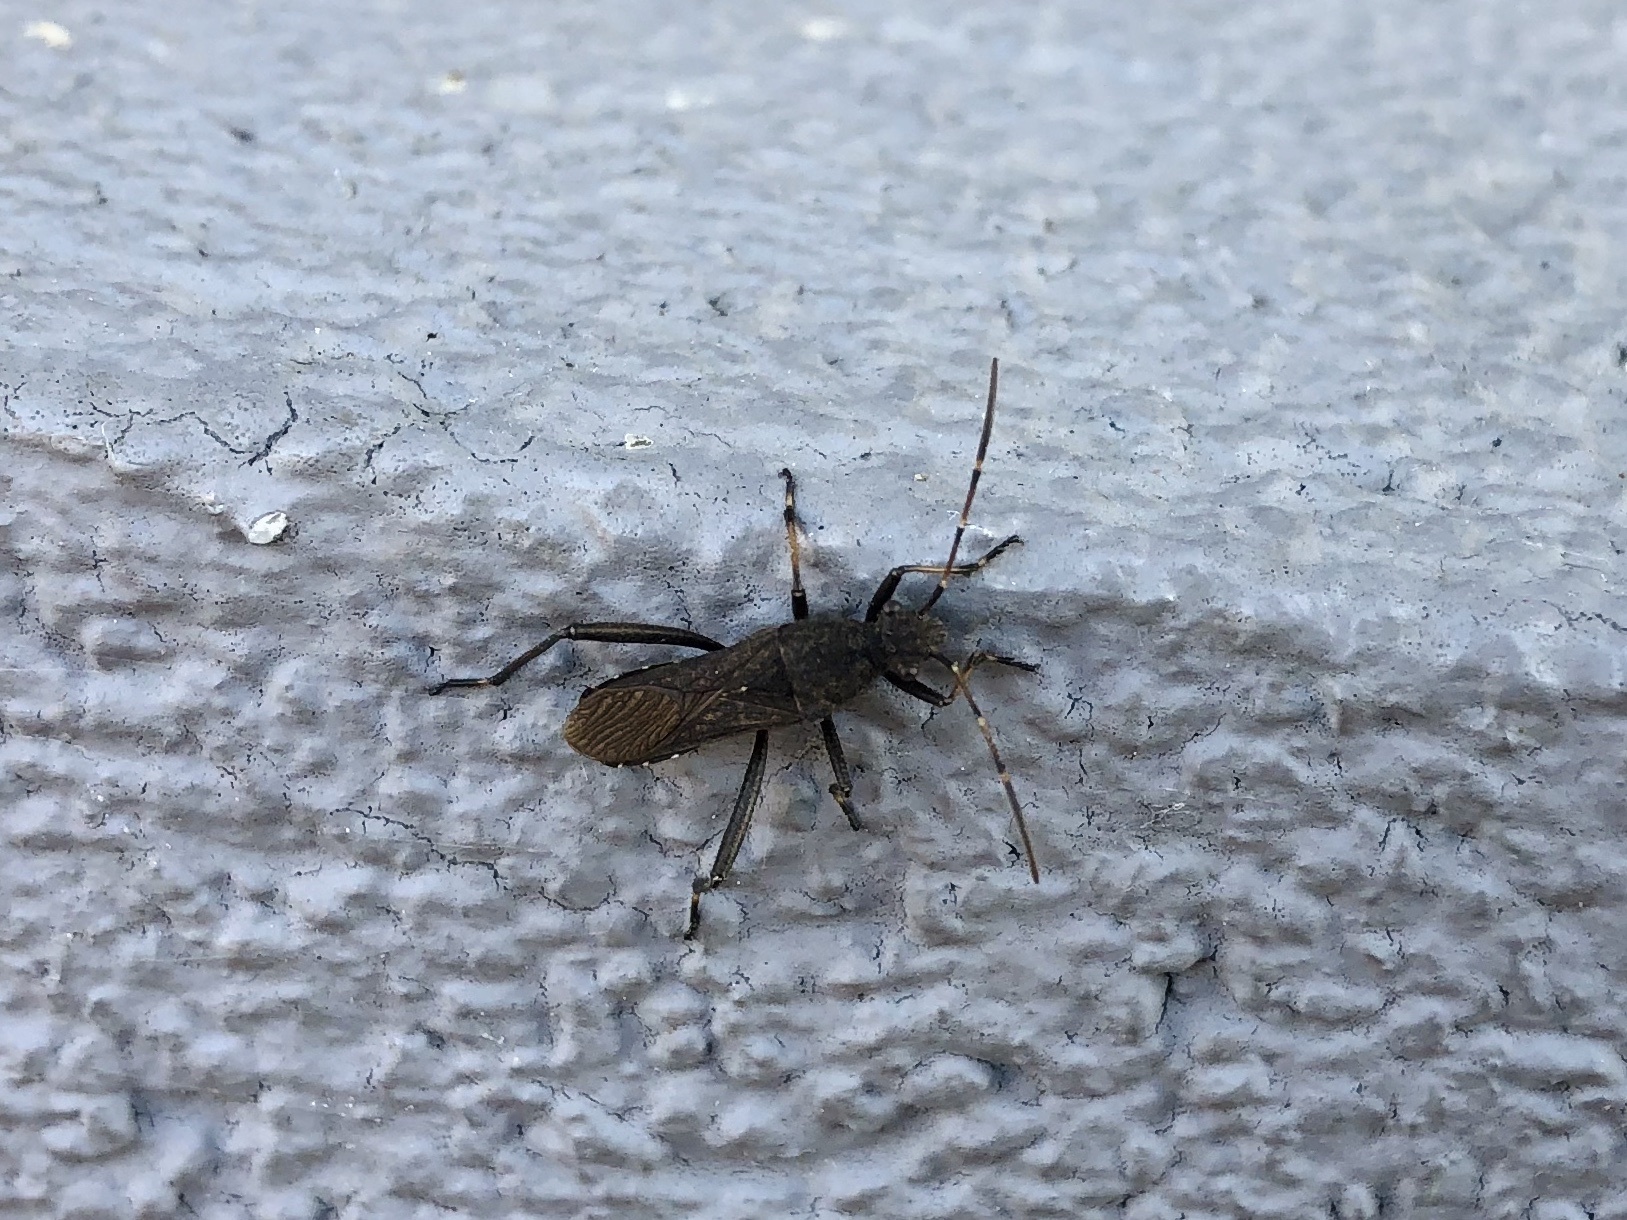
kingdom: Animalia
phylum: Arthropoda
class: Insecta
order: Hemiptera
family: Alydidae
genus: Alydus
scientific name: Alydus calcaratus
